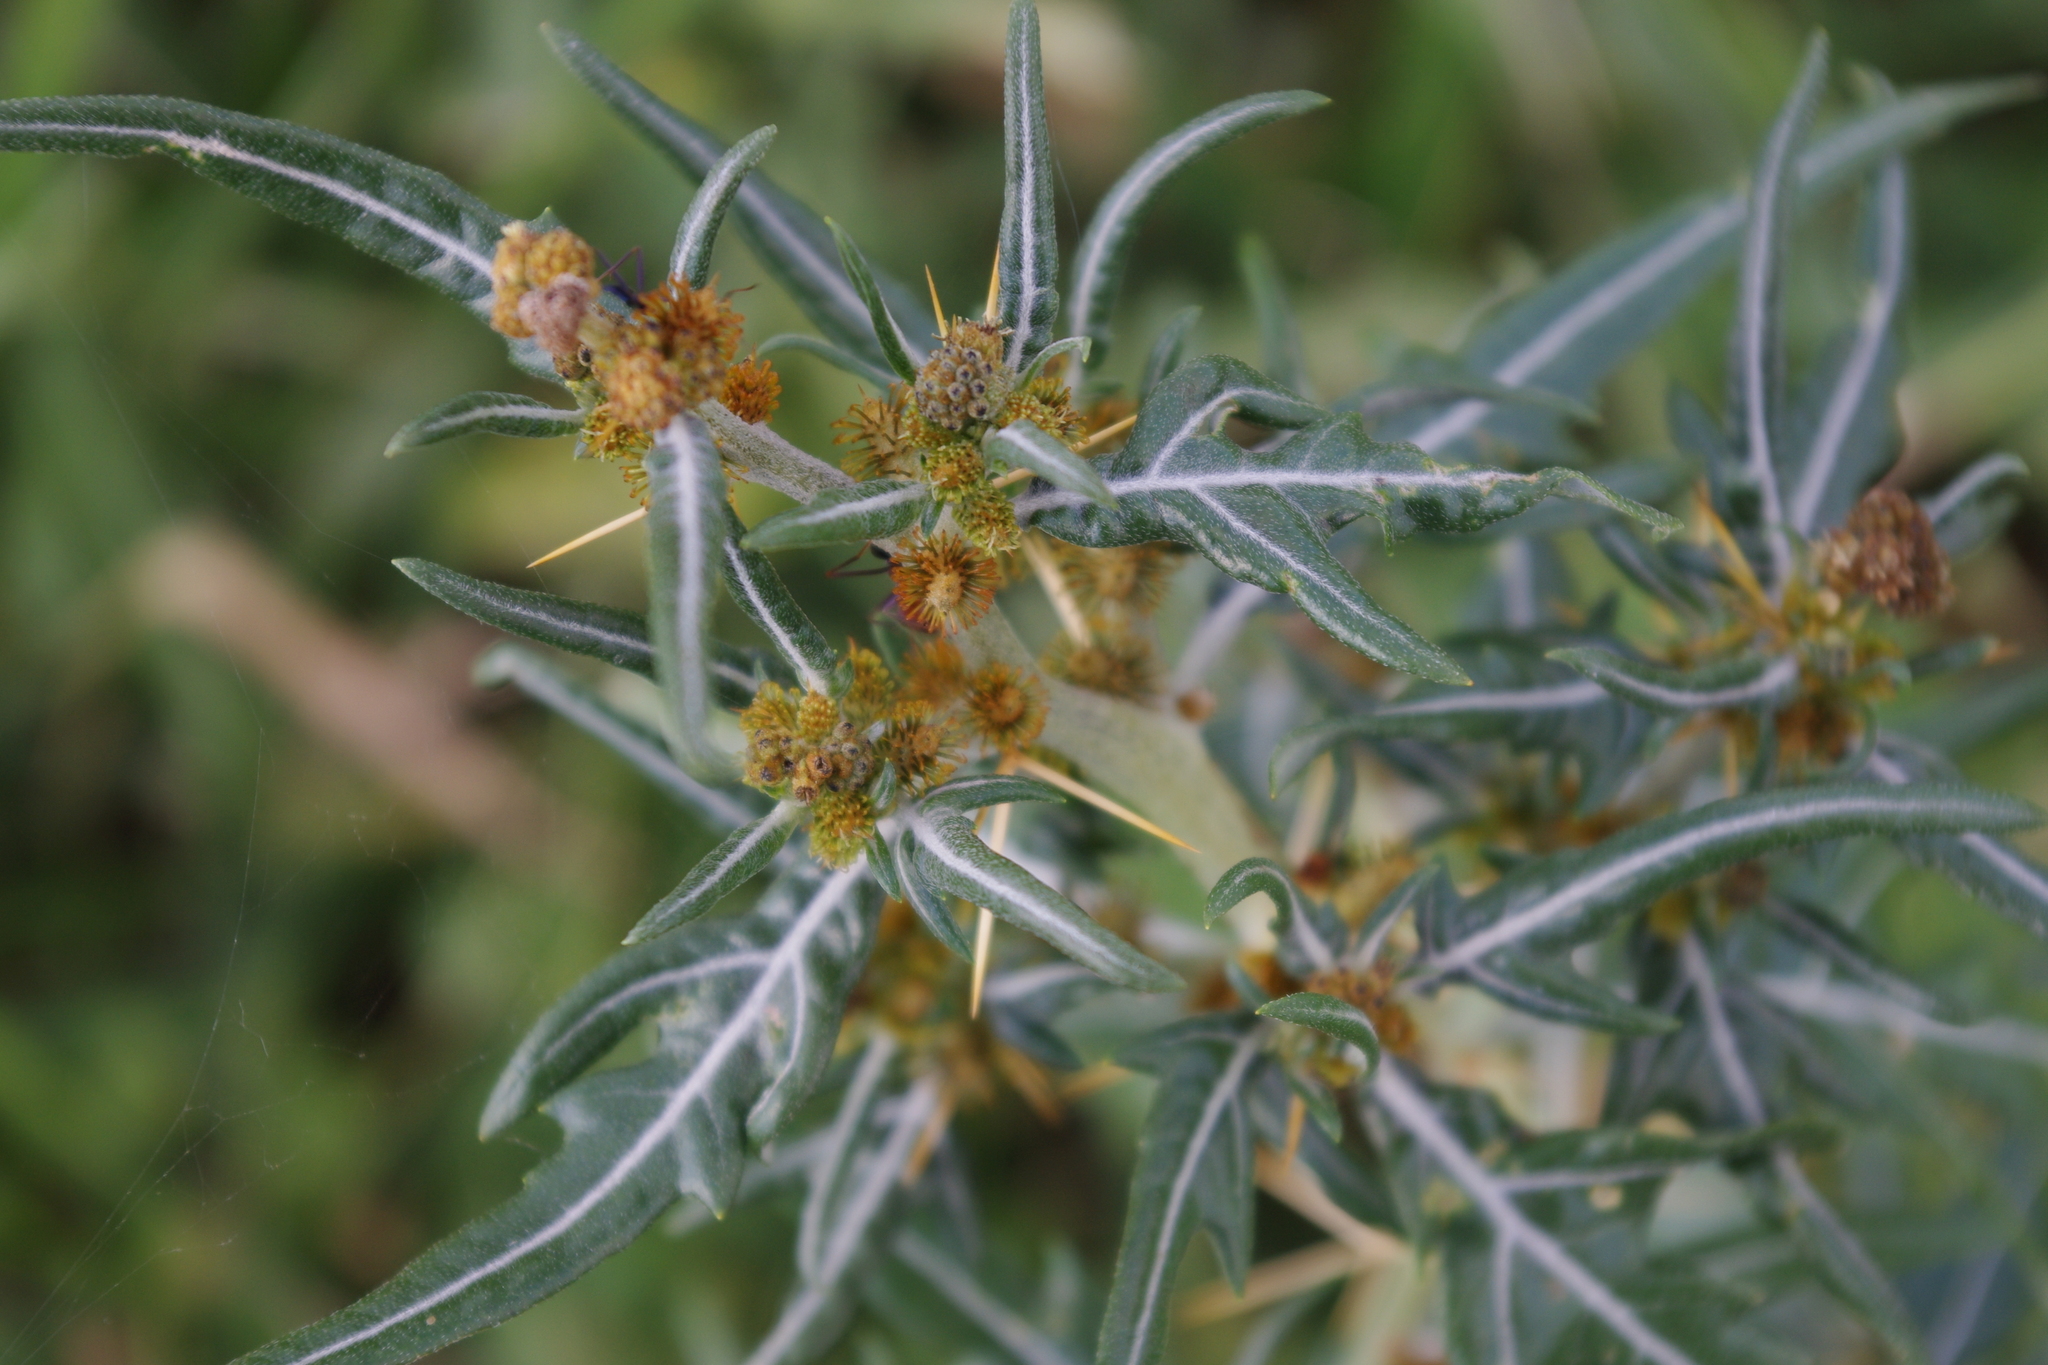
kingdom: Plantae
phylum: Tracheophyta
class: Magnoliopsida
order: Asterales
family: Asteraceae
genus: Xanthium
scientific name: Xanthium spinosum
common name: Spiny cocklebur
